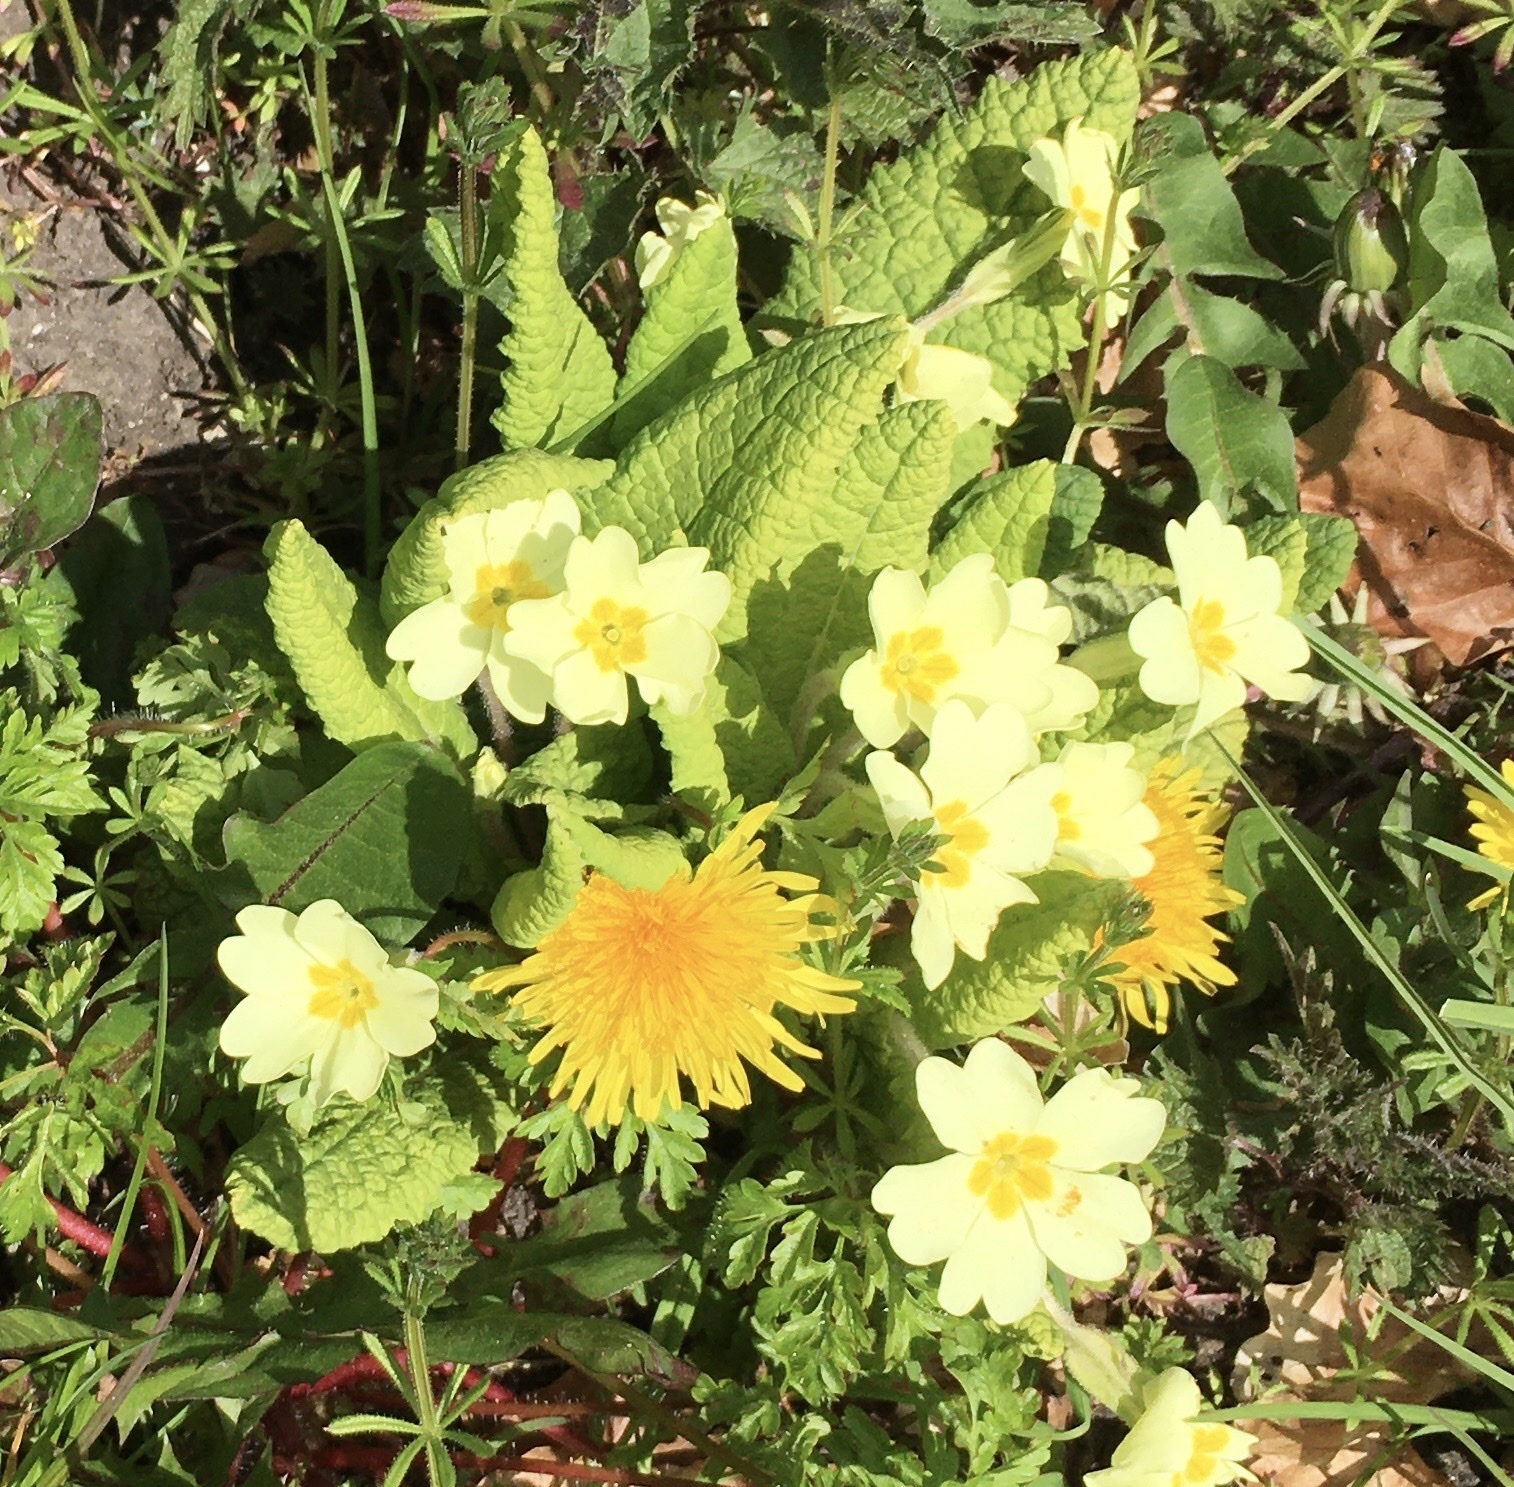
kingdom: Plantae
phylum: Tracheophyta
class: Magnoliopsida
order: Ericales
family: Primulaceae
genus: Primula
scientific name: Primula vulgaris
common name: Primrose
